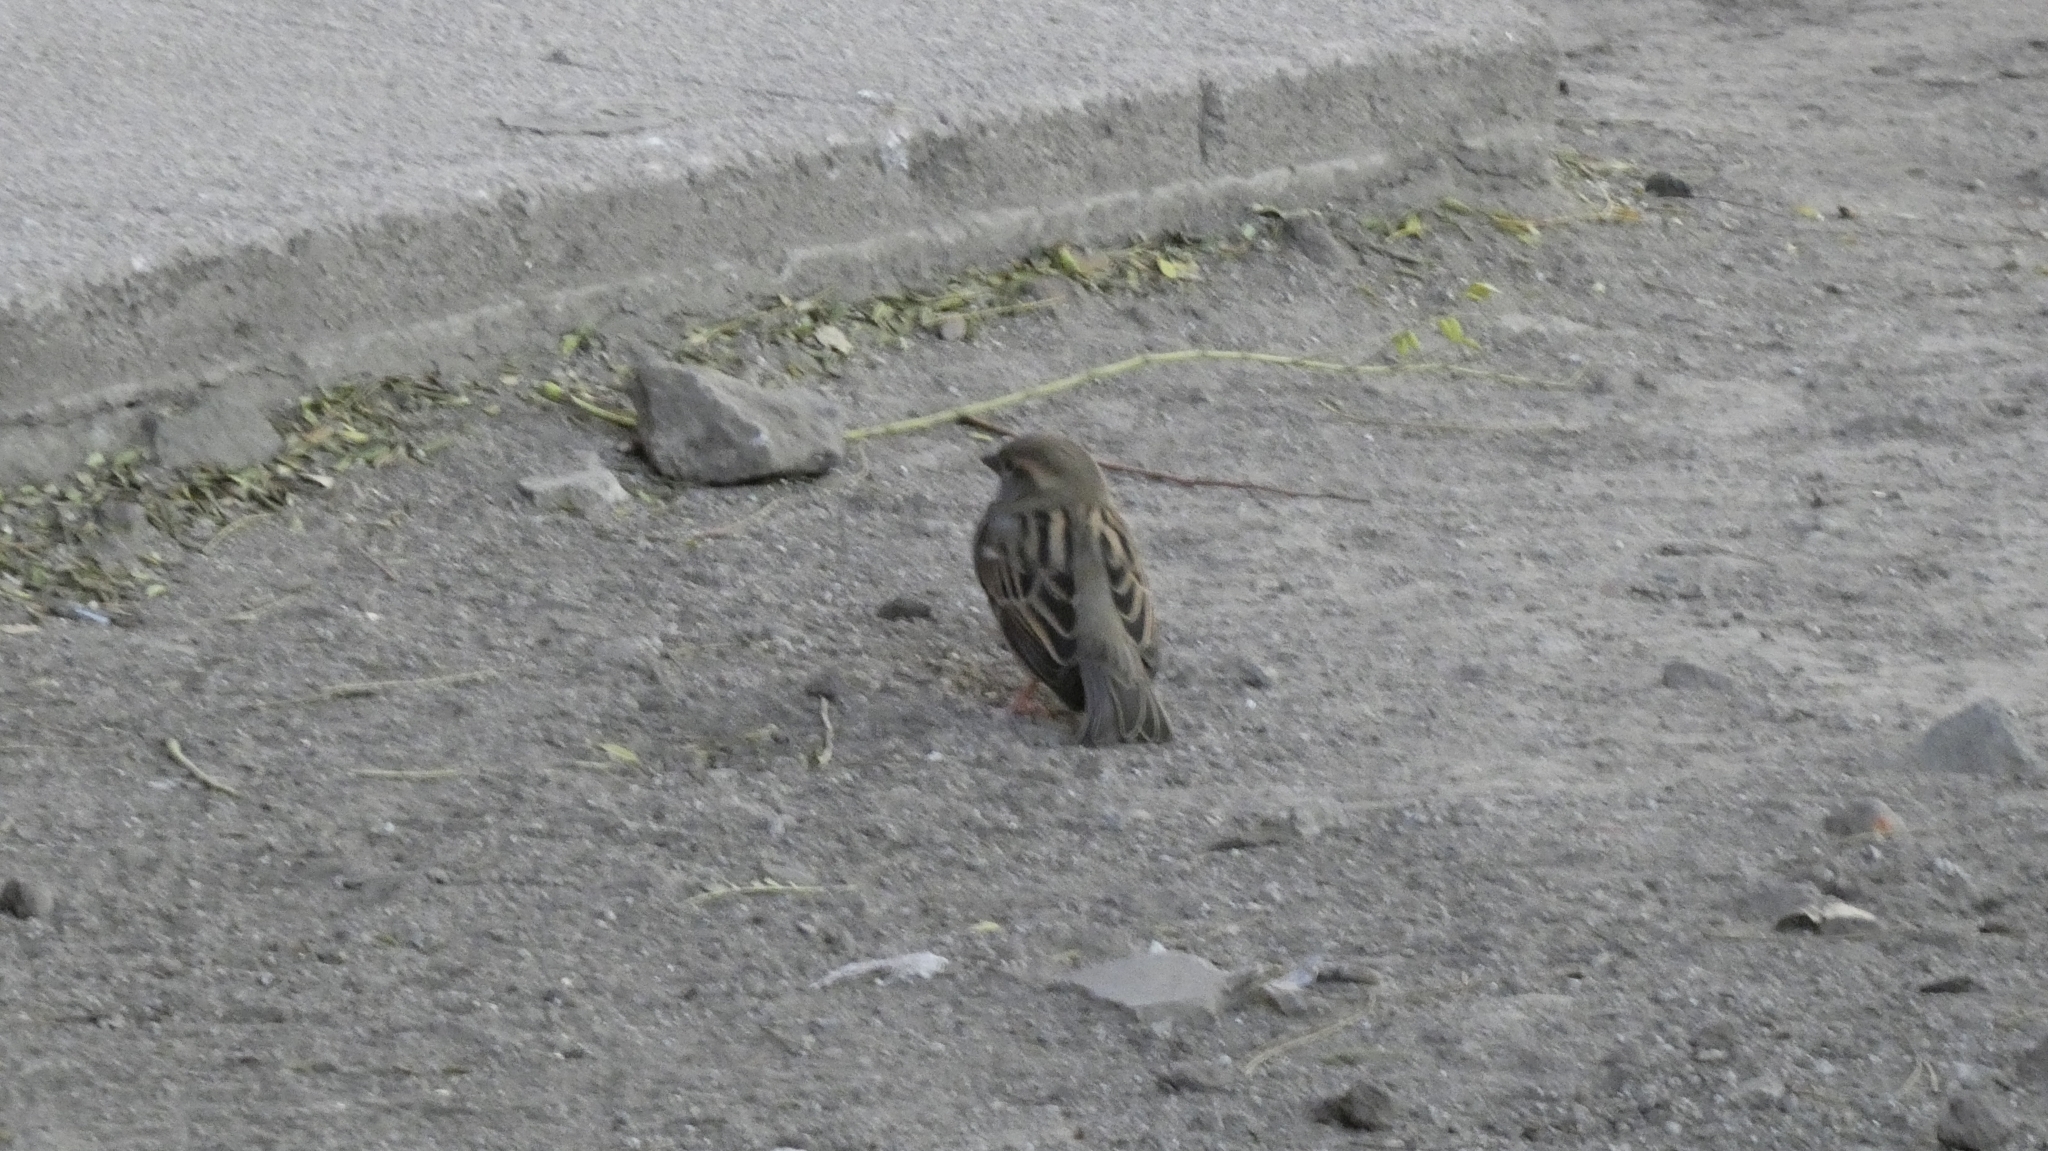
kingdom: Animalia
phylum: Chordata
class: Aves
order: Passeriformes
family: Passeridae
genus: Passer
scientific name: Passer domesticus
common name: House sparrow
